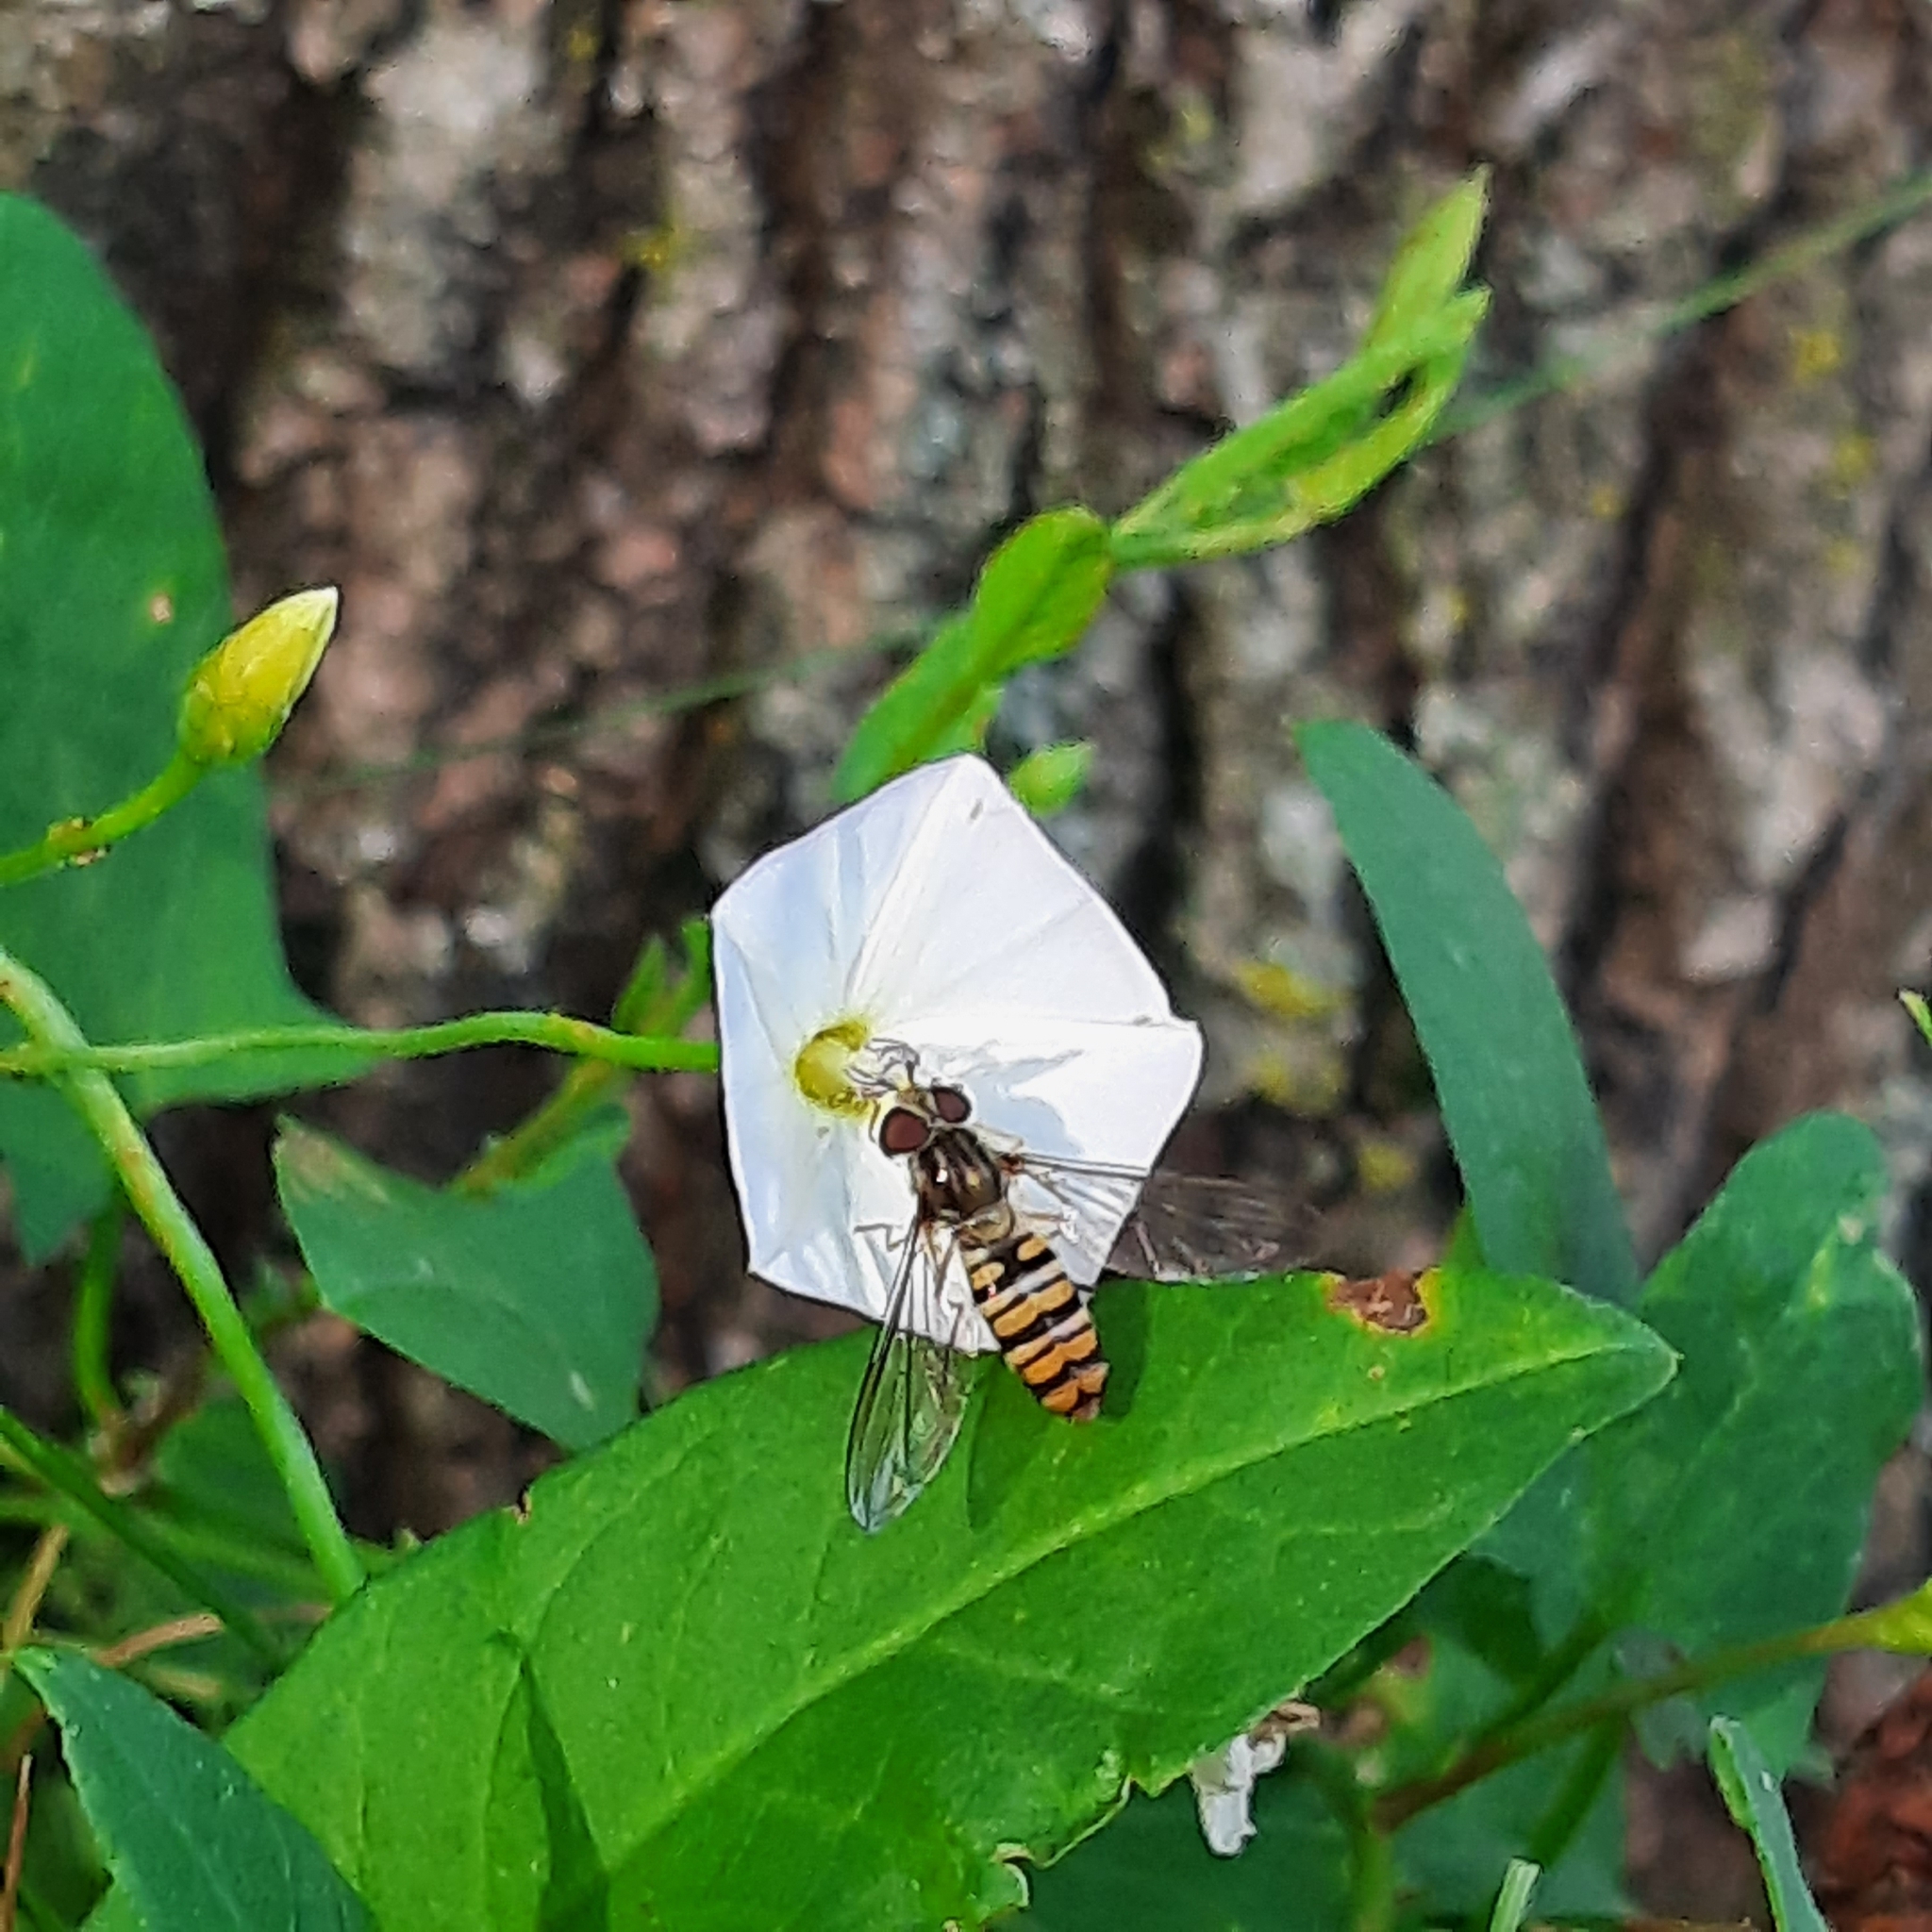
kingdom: Animalia
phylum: Arthropoda
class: Insecta
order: Diptera
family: Syrphidae
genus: Episyrphus
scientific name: Episyrphus balteatus
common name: Marmalade hoverfly
